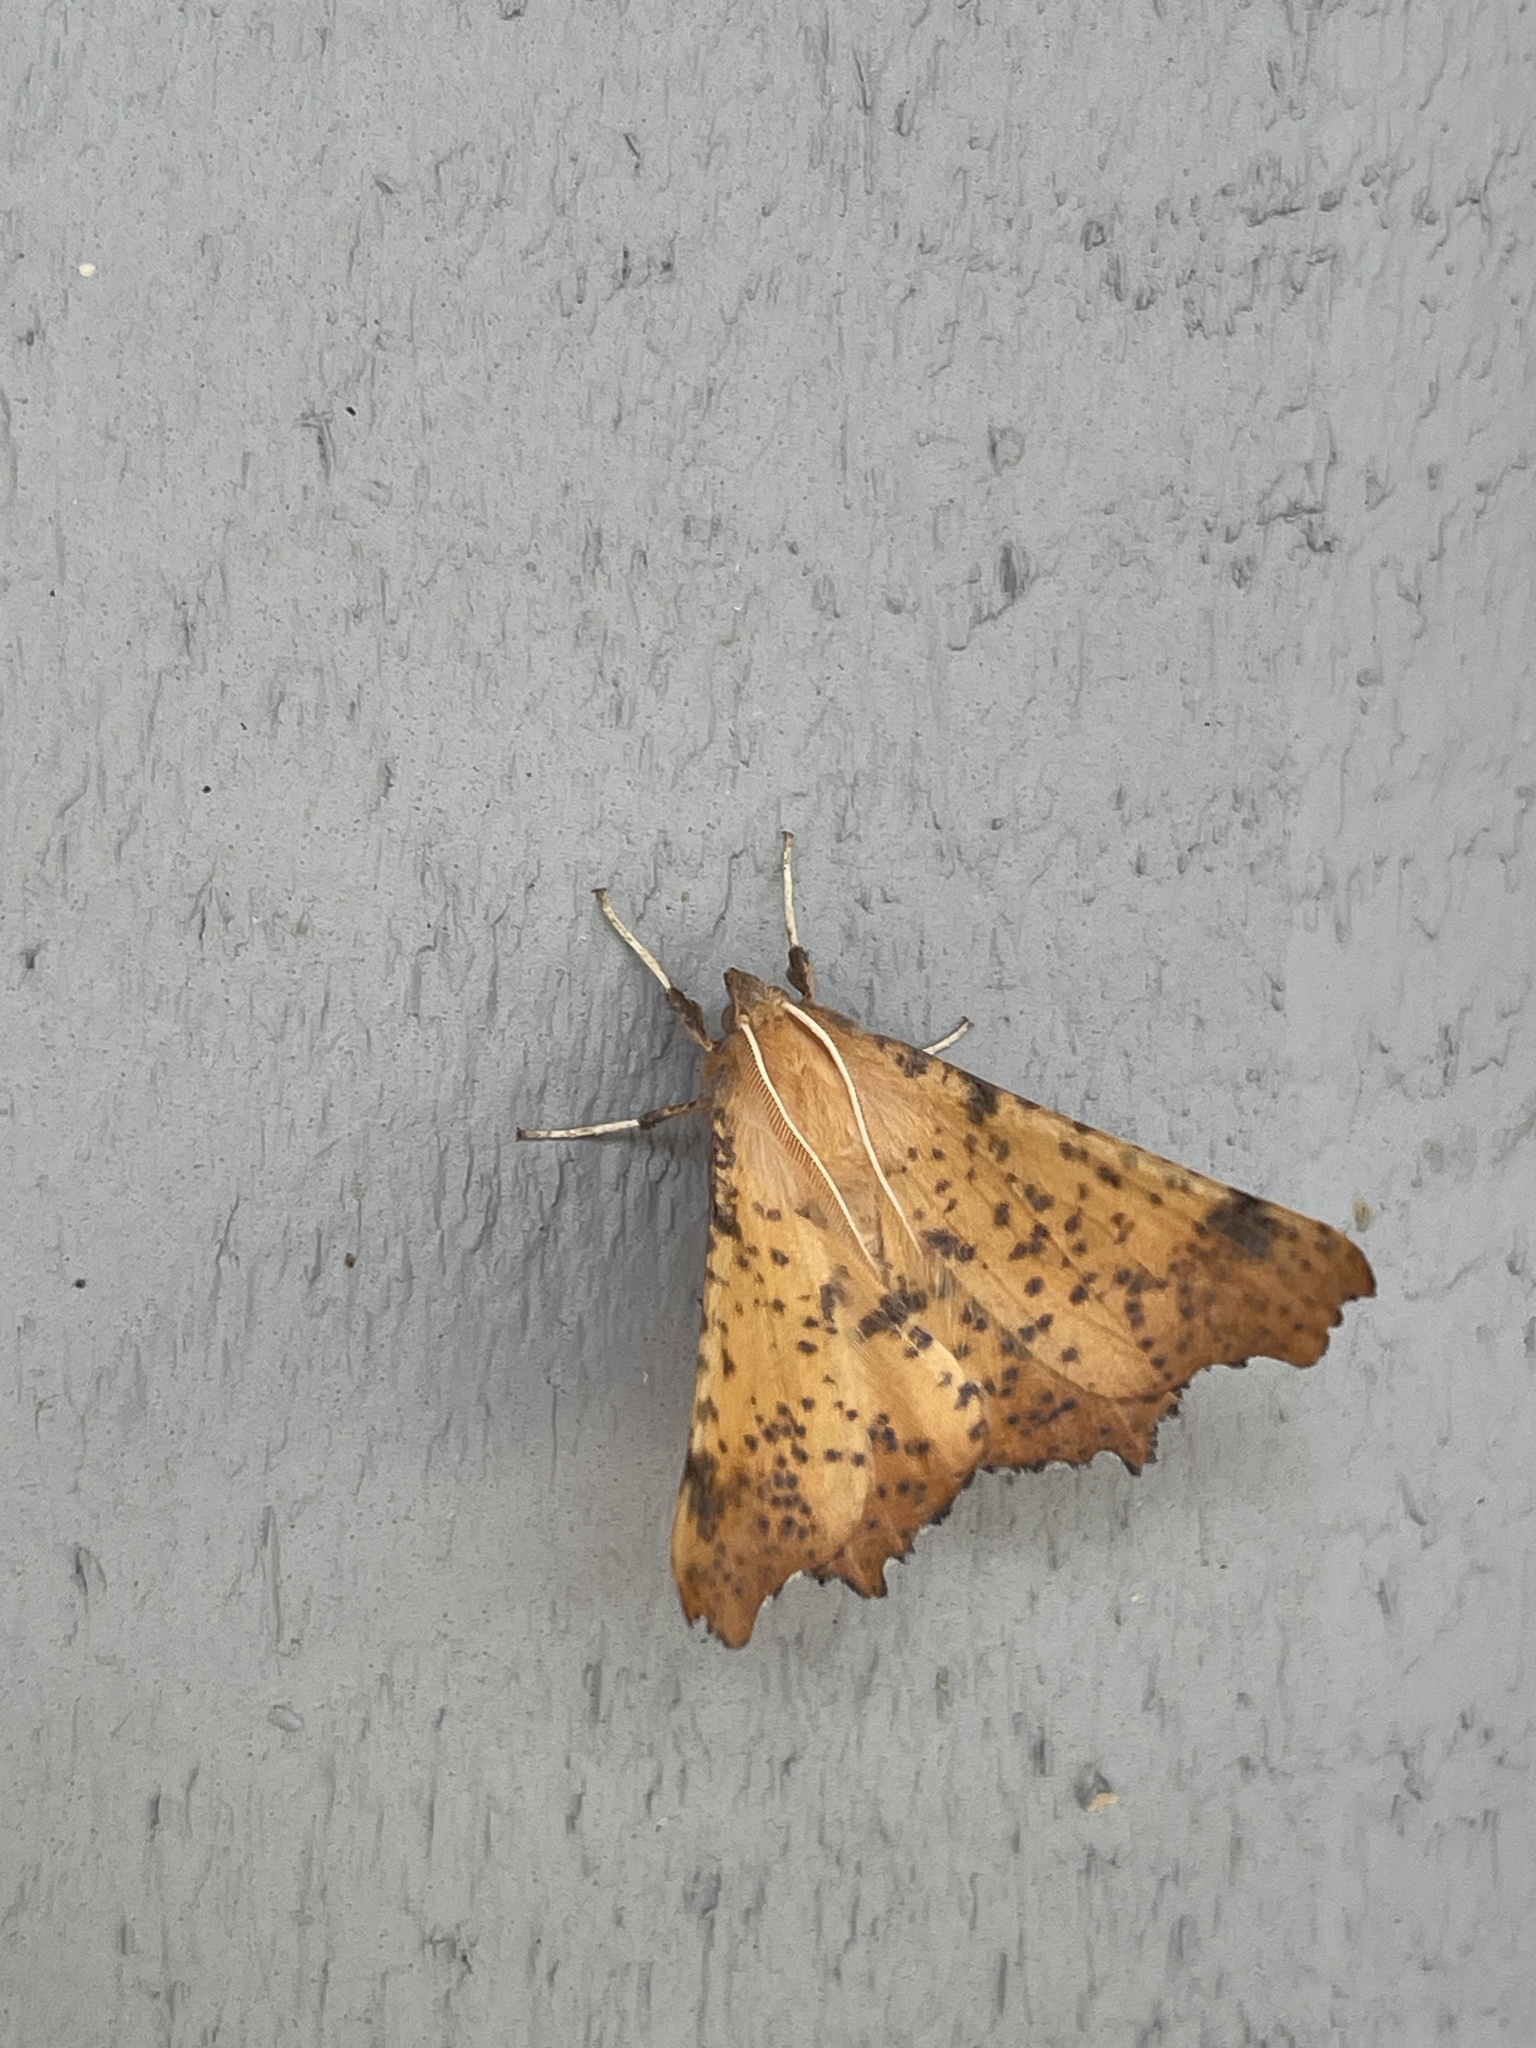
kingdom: Animalia
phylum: Arthropoda
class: Insecta
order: Lepidoptera
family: Geometridae
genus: Ennomos
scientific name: Ennomos magnaria
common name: Maple spanworm
